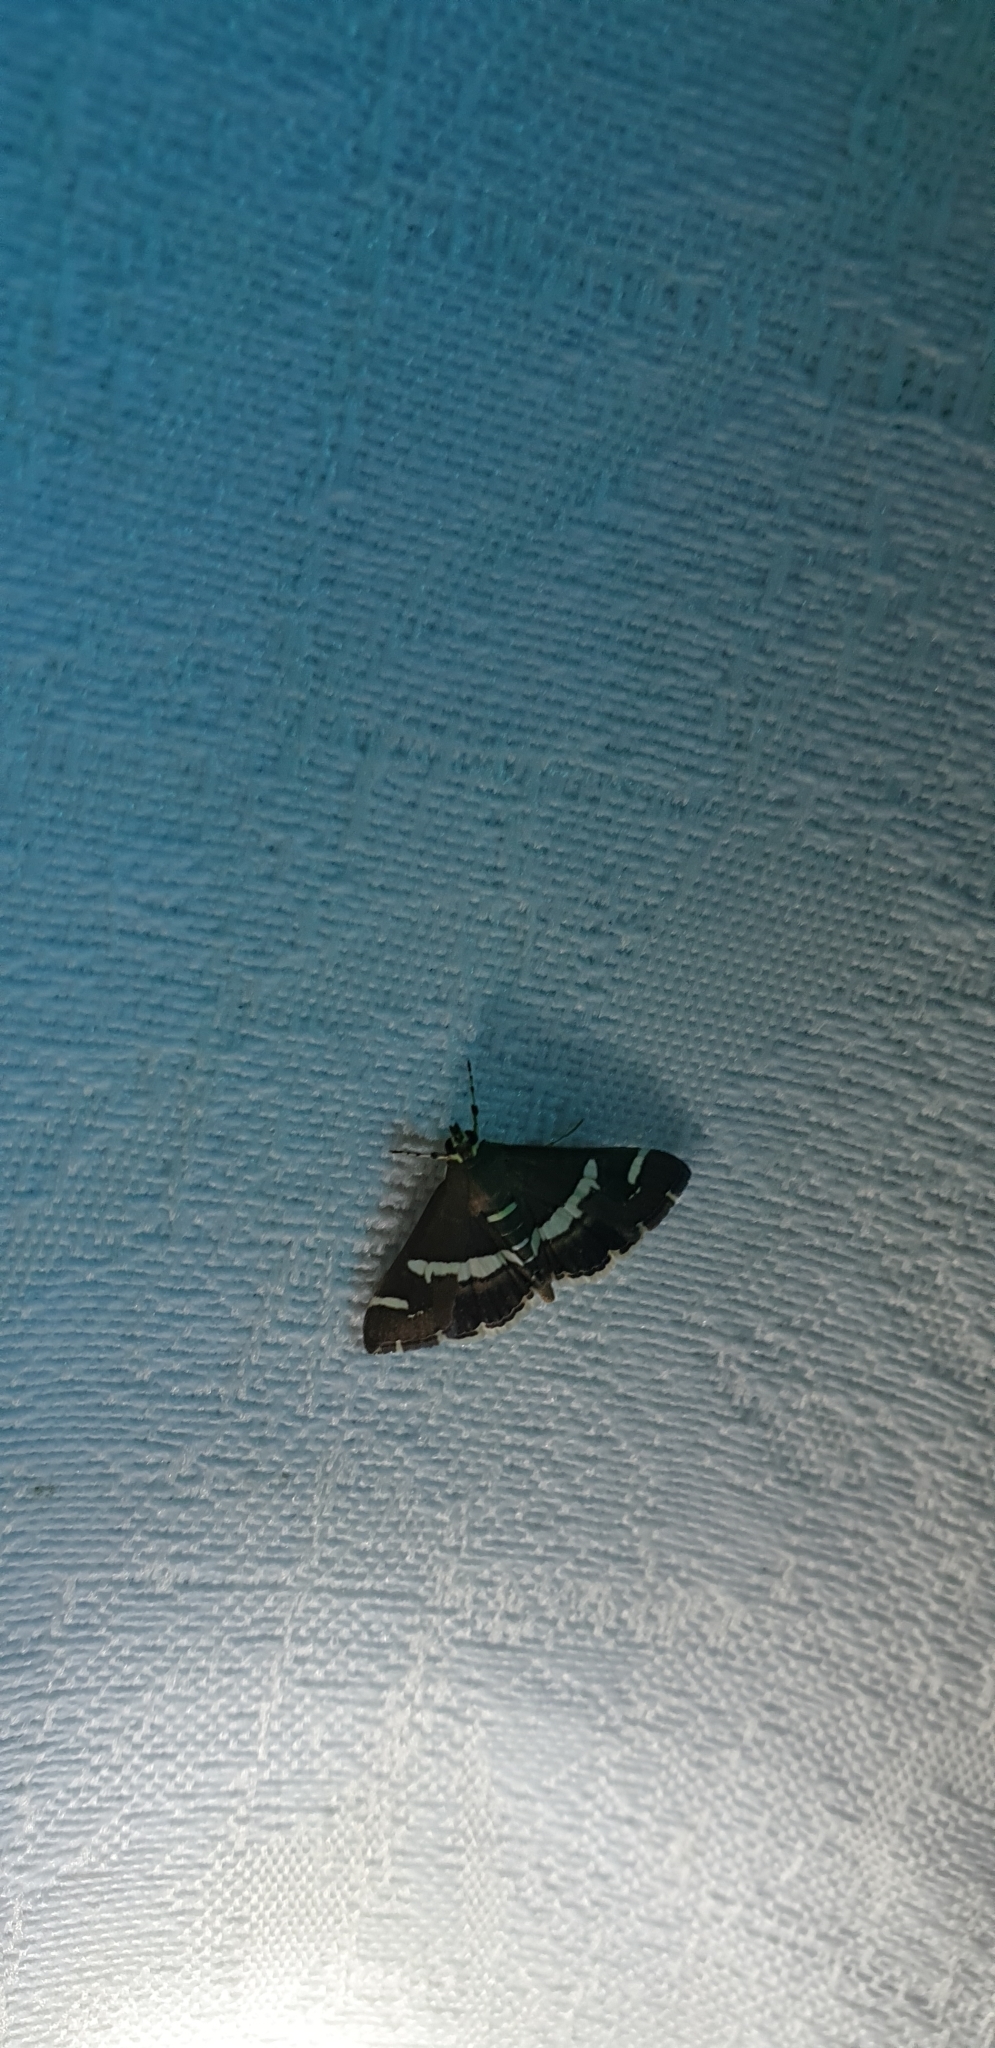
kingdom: Animalia
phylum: Arthropoda
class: Insecta
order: Lepidoptera
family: Crambidae
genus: Spoladea
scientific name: Spoladea recurvalis
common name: Beet webworm moth
